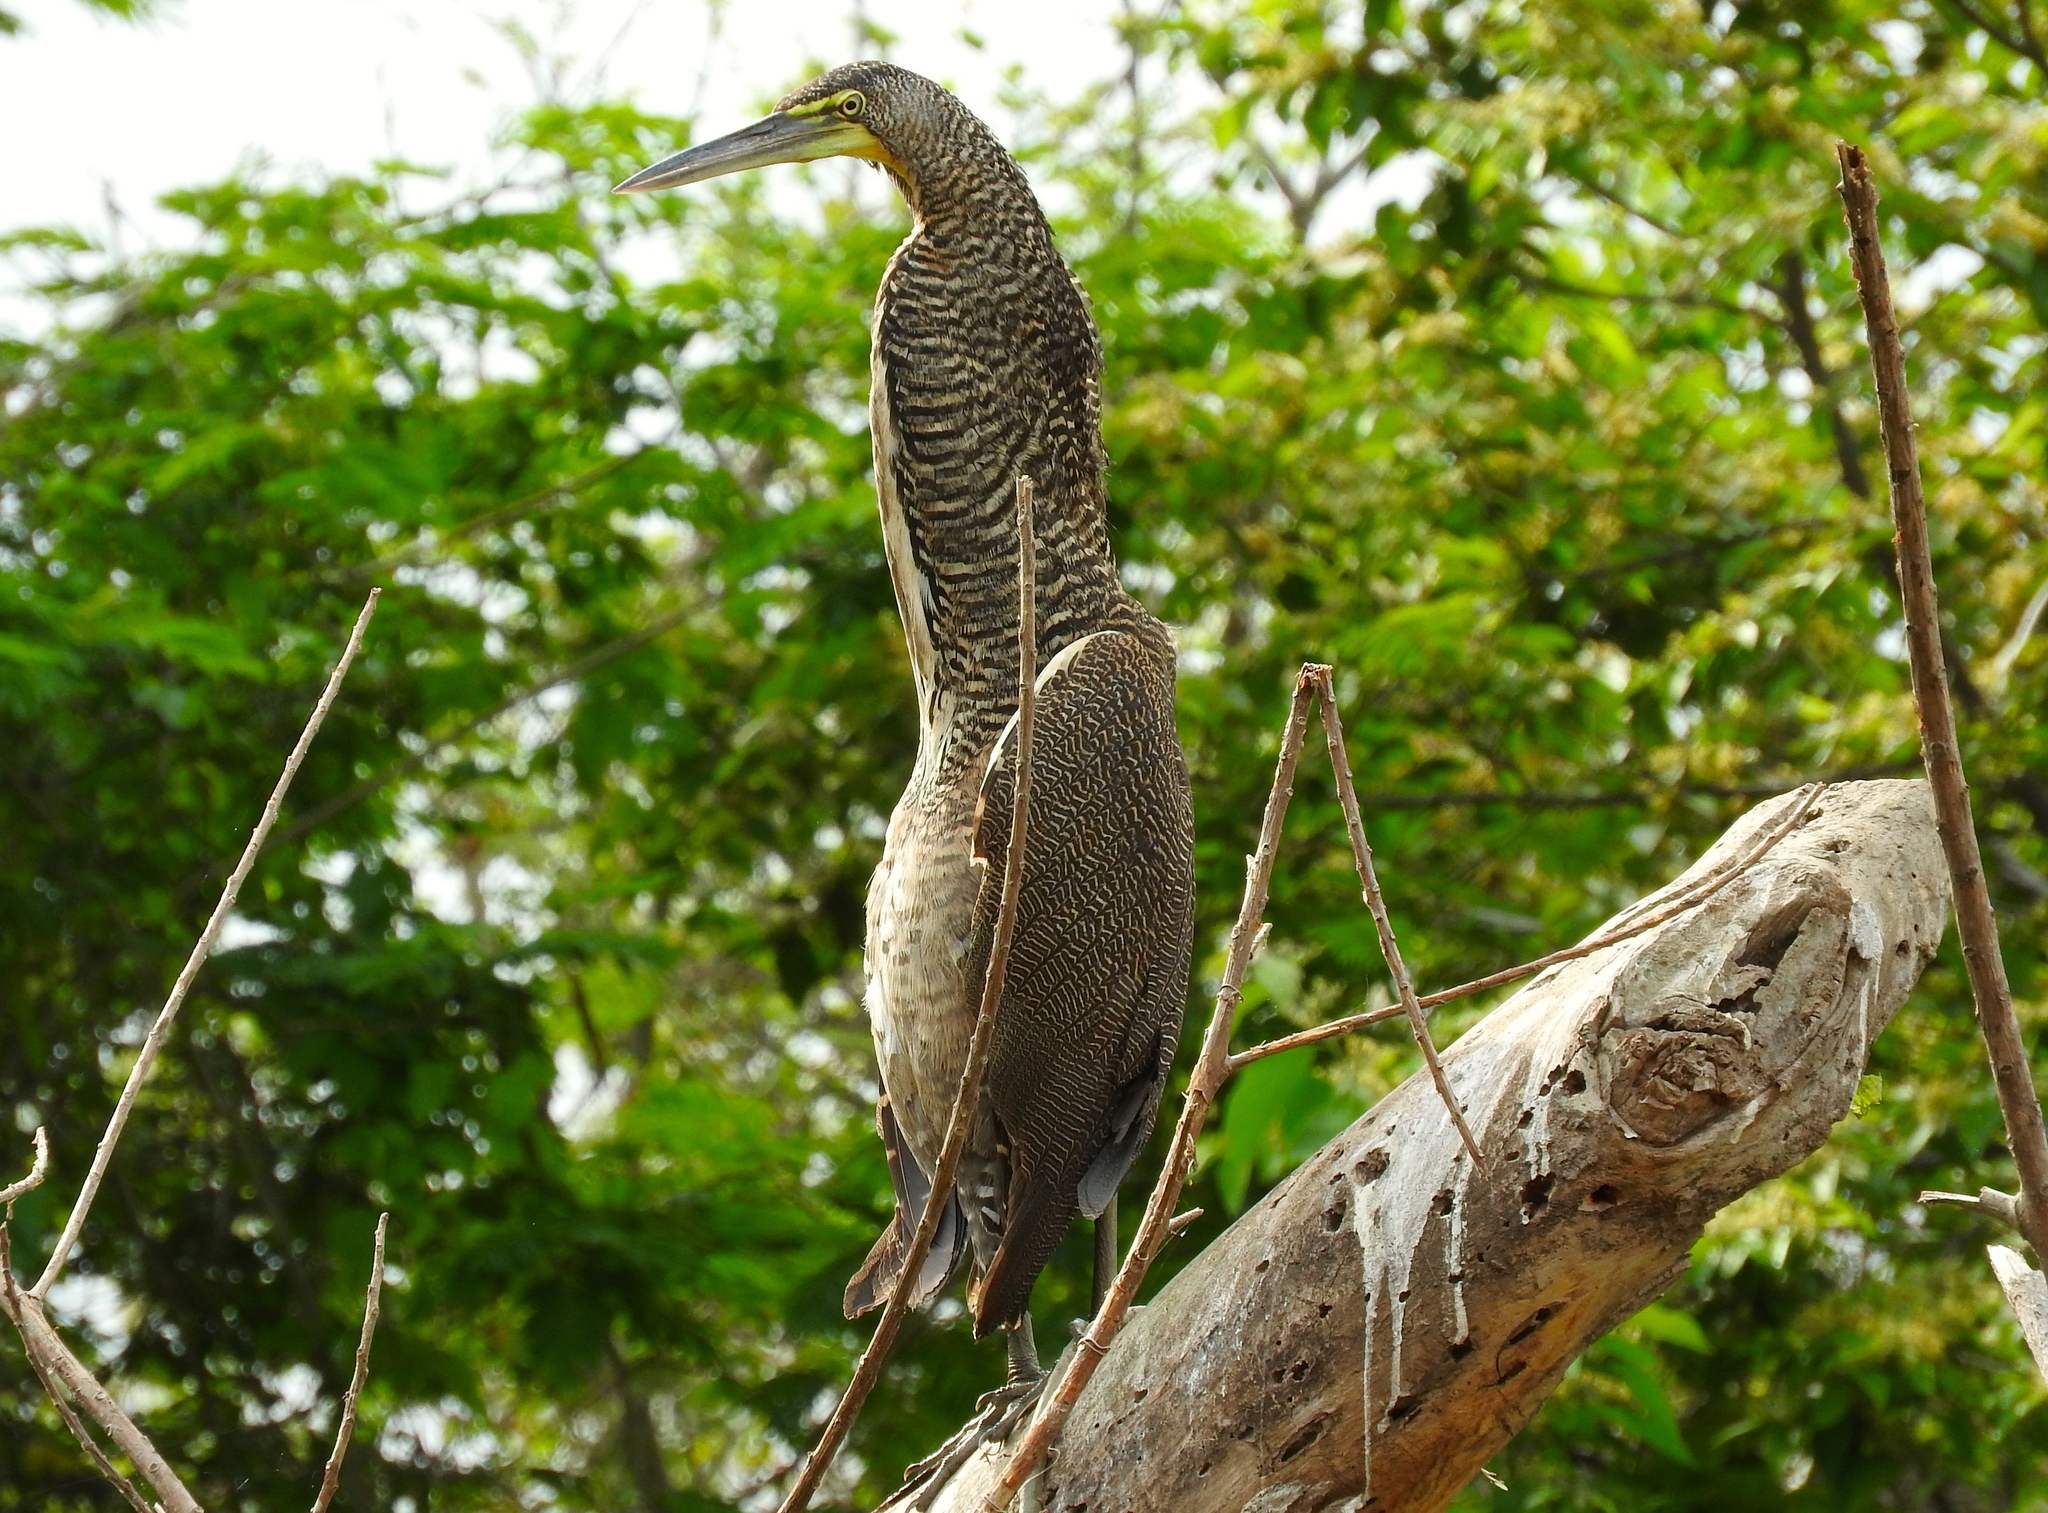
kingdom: Animalia
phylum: Chordata
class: Aves
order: Pelecaniformes
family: Ardeidae
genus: Tigrisoma
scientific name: Tigrisoma mexicanum
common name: Bare-throated tiger-heron
